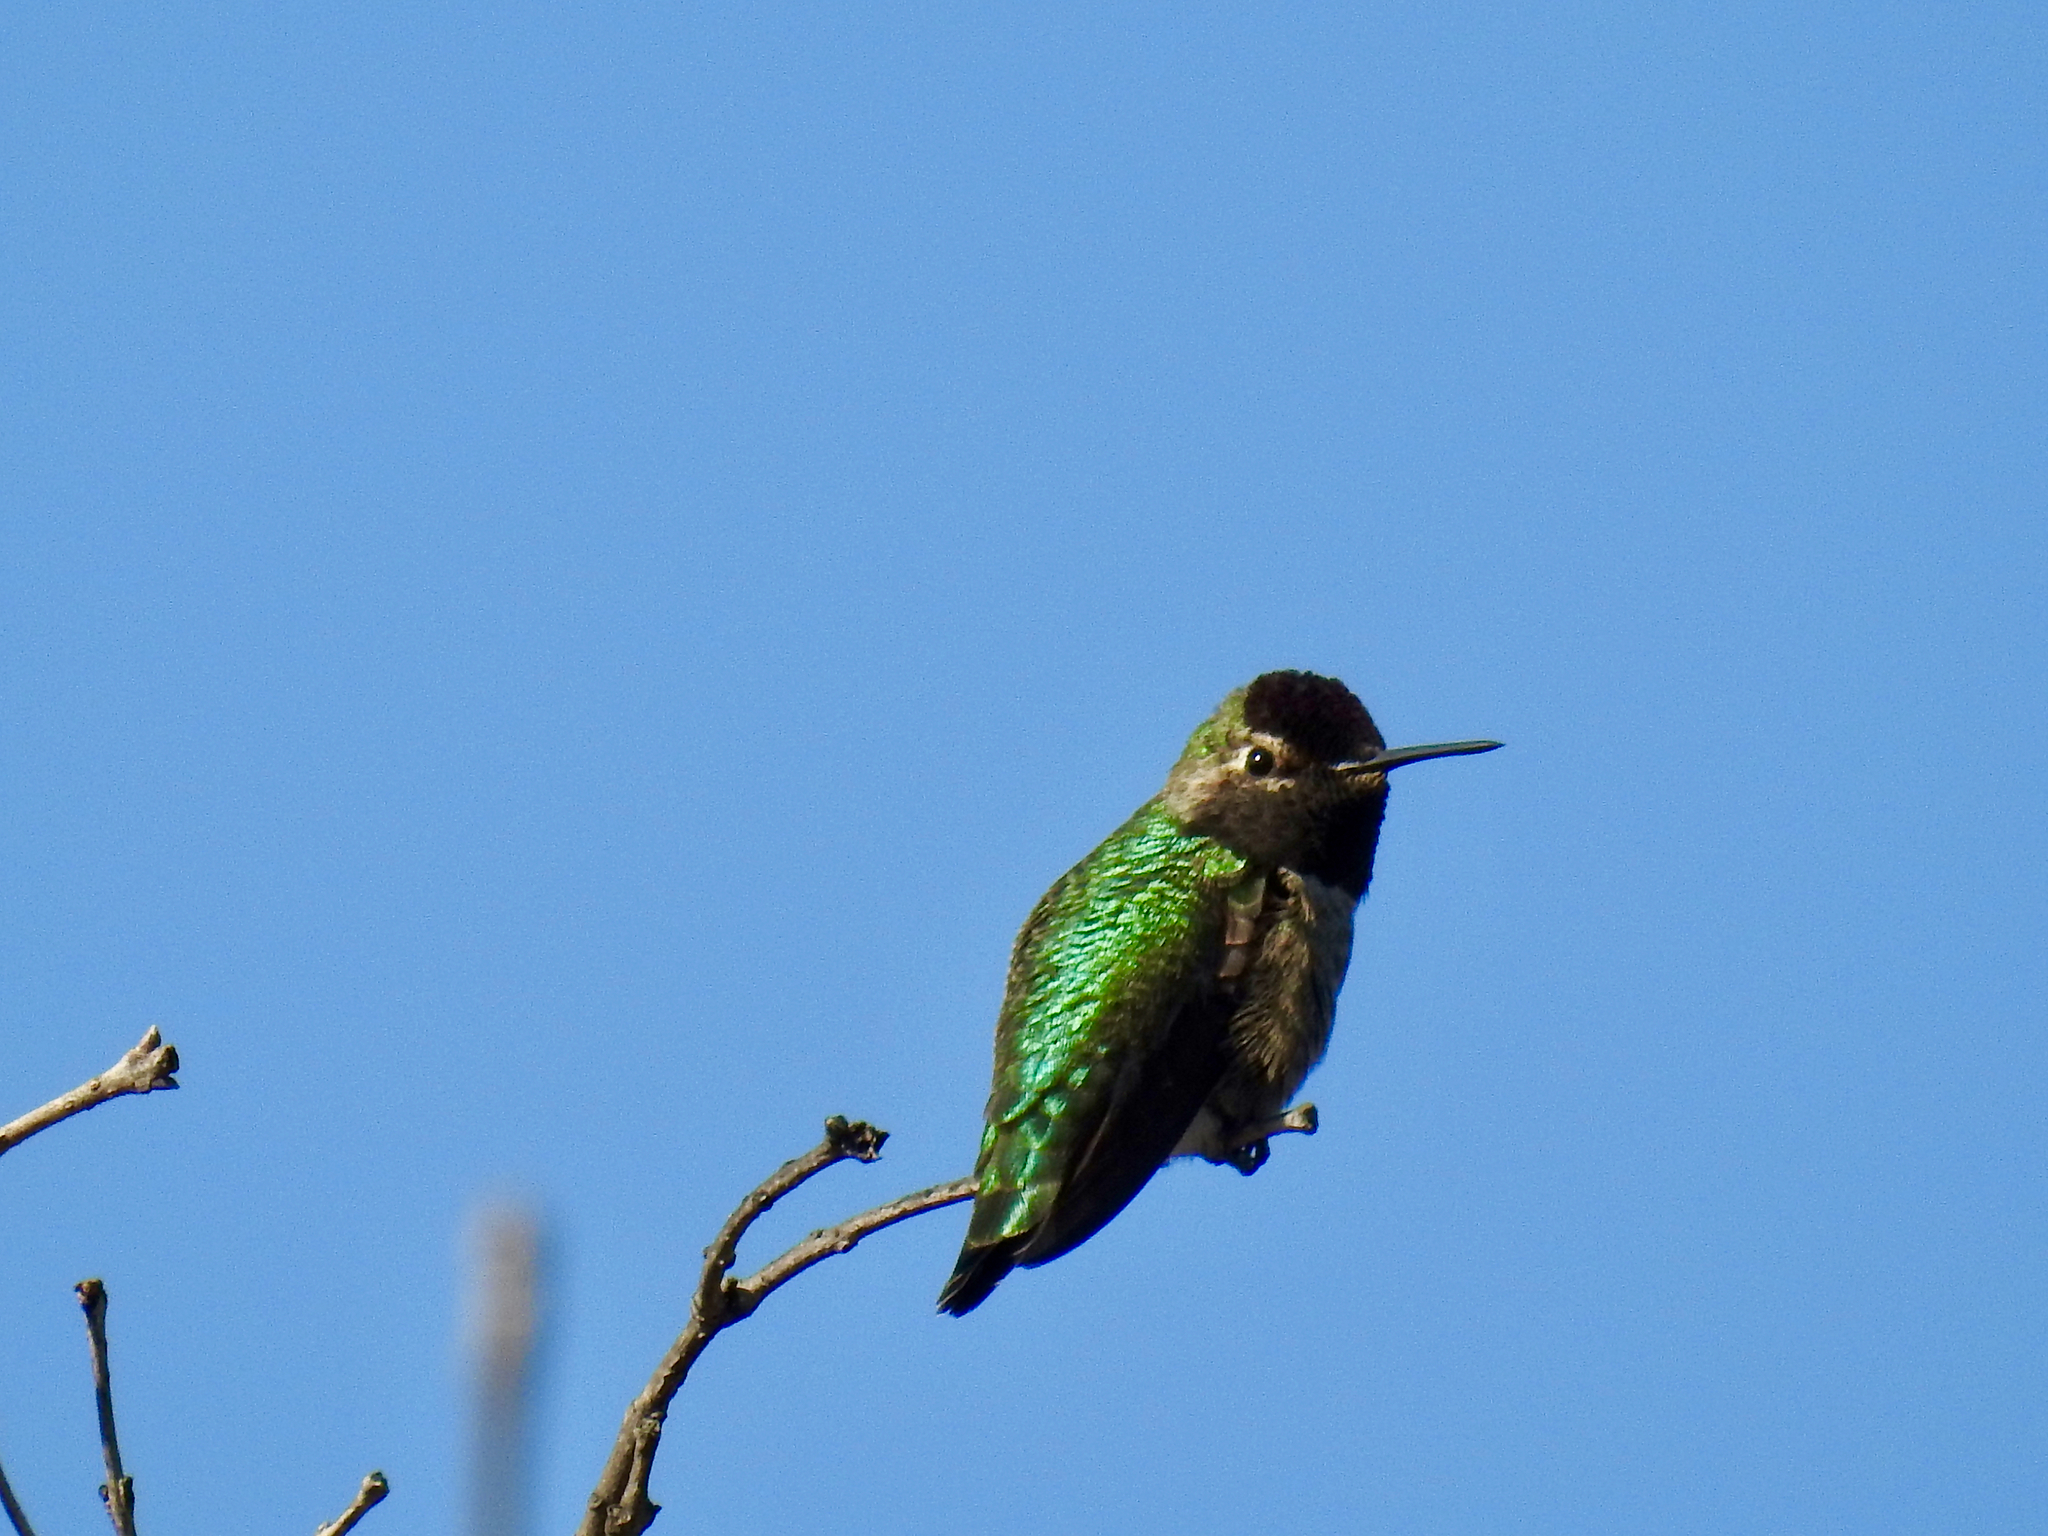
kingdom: Animalia
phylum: Chordata
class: Aves
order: Apodiformes
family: Trochilidae
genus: Calypte
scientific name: Calypte anna
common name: Anna's hummingbird
